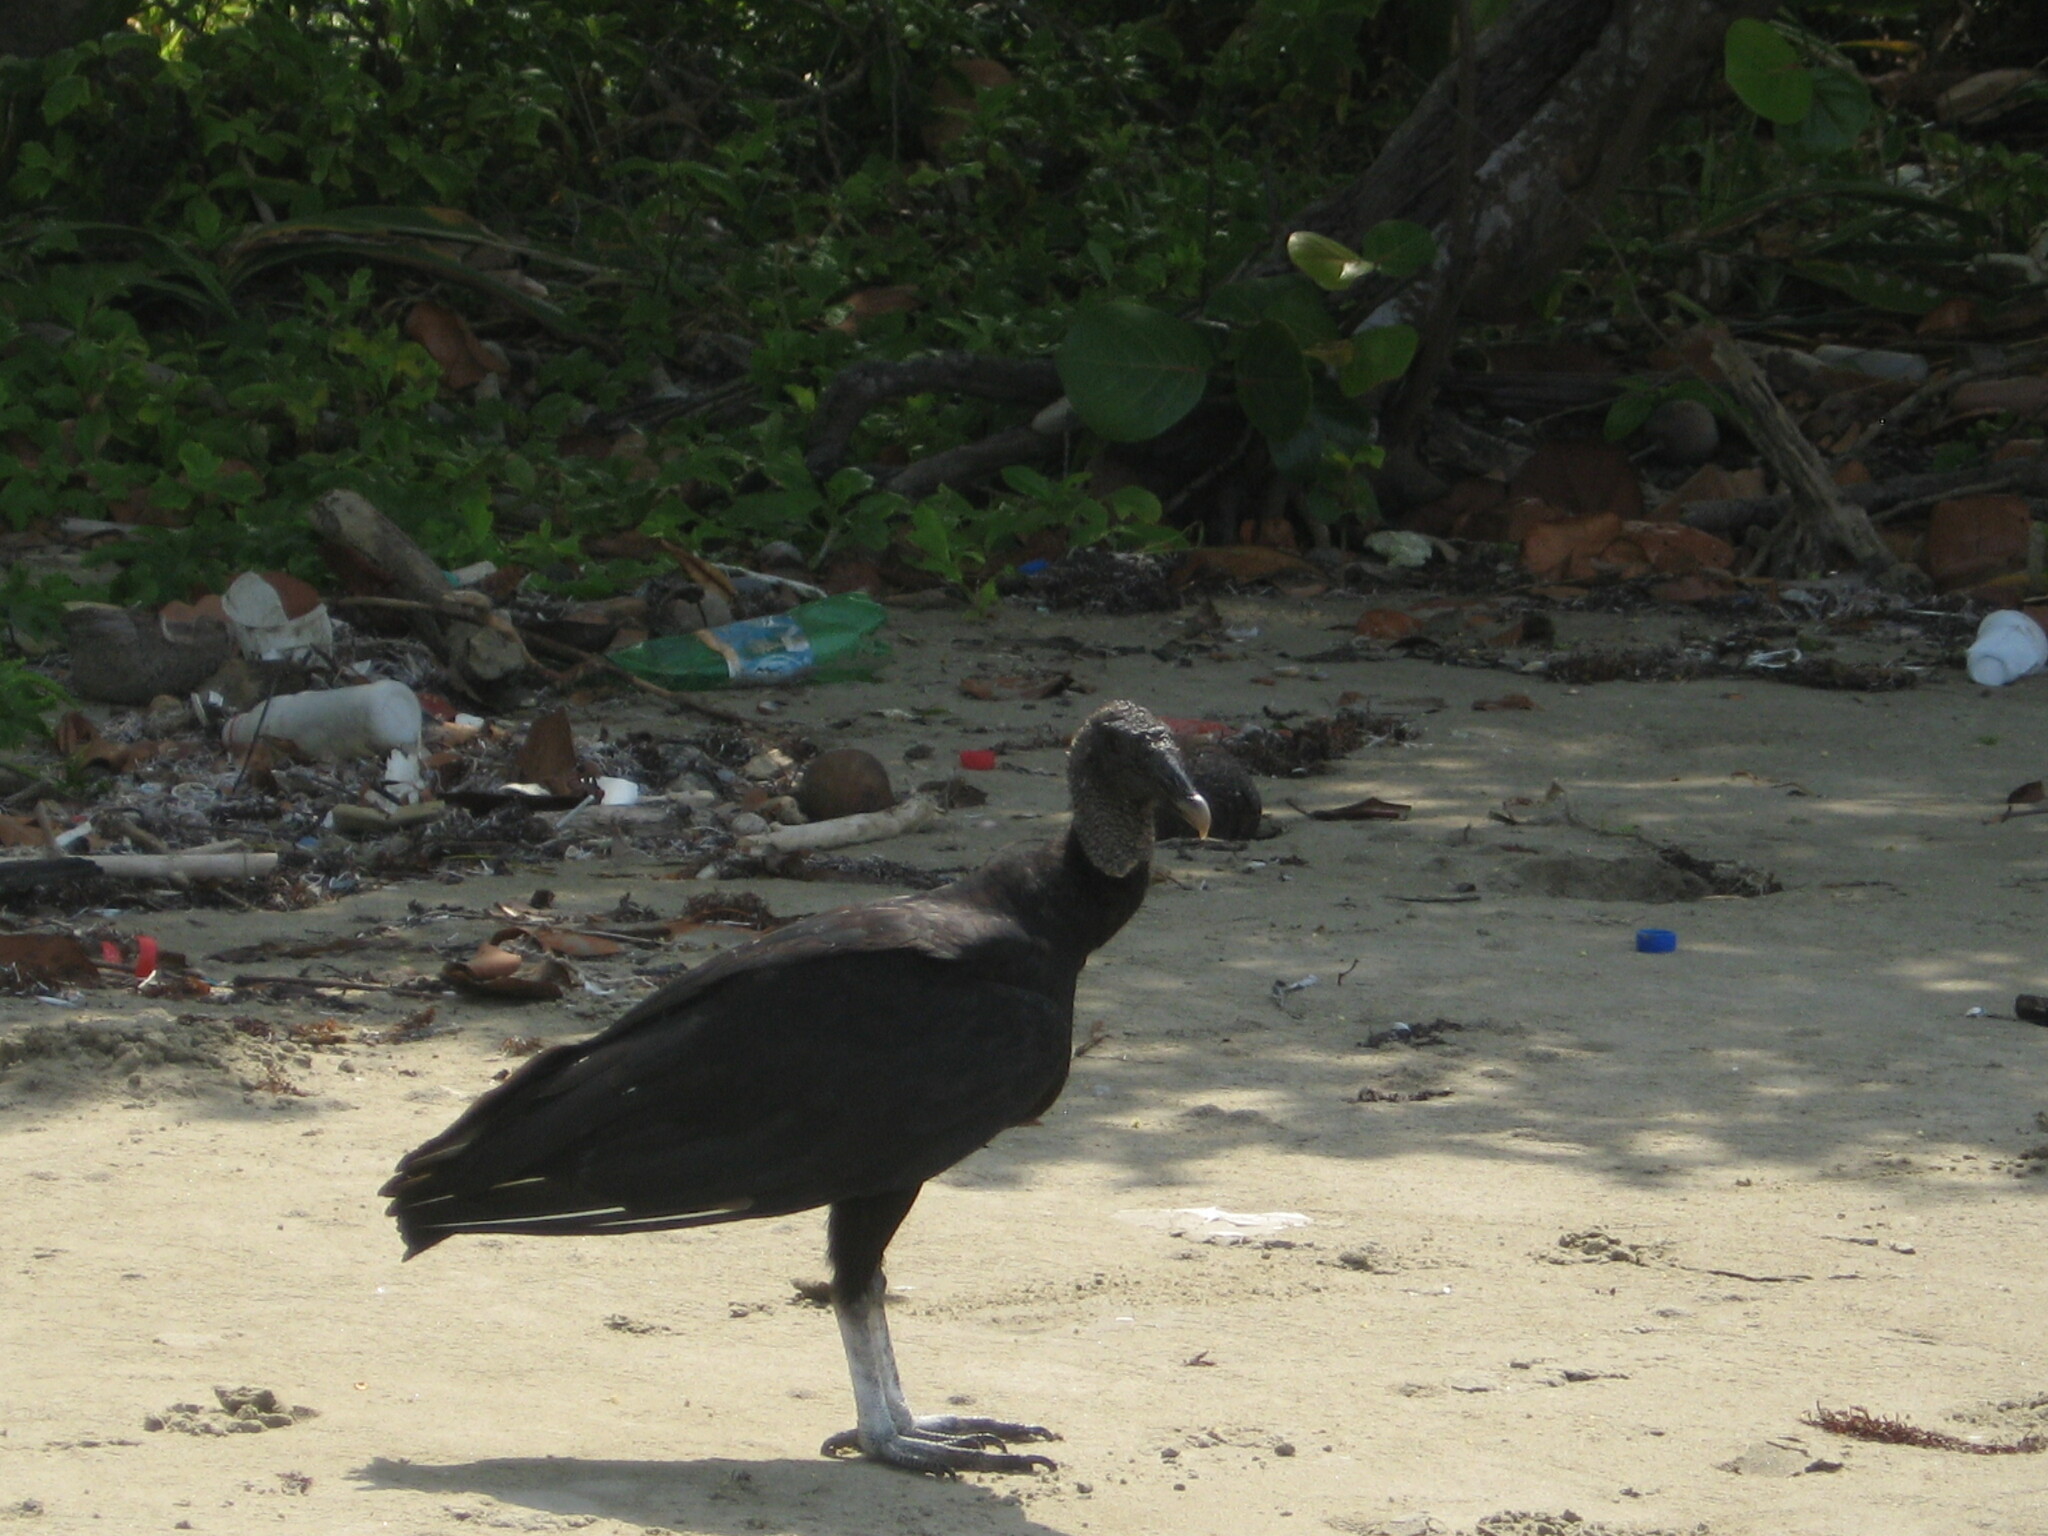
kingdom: Animalia
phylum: Chordata
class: Aves
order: Accipitriformes
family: Cathartidae
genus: Coragyps
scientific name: Coragyps atratus
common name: Black vulture
